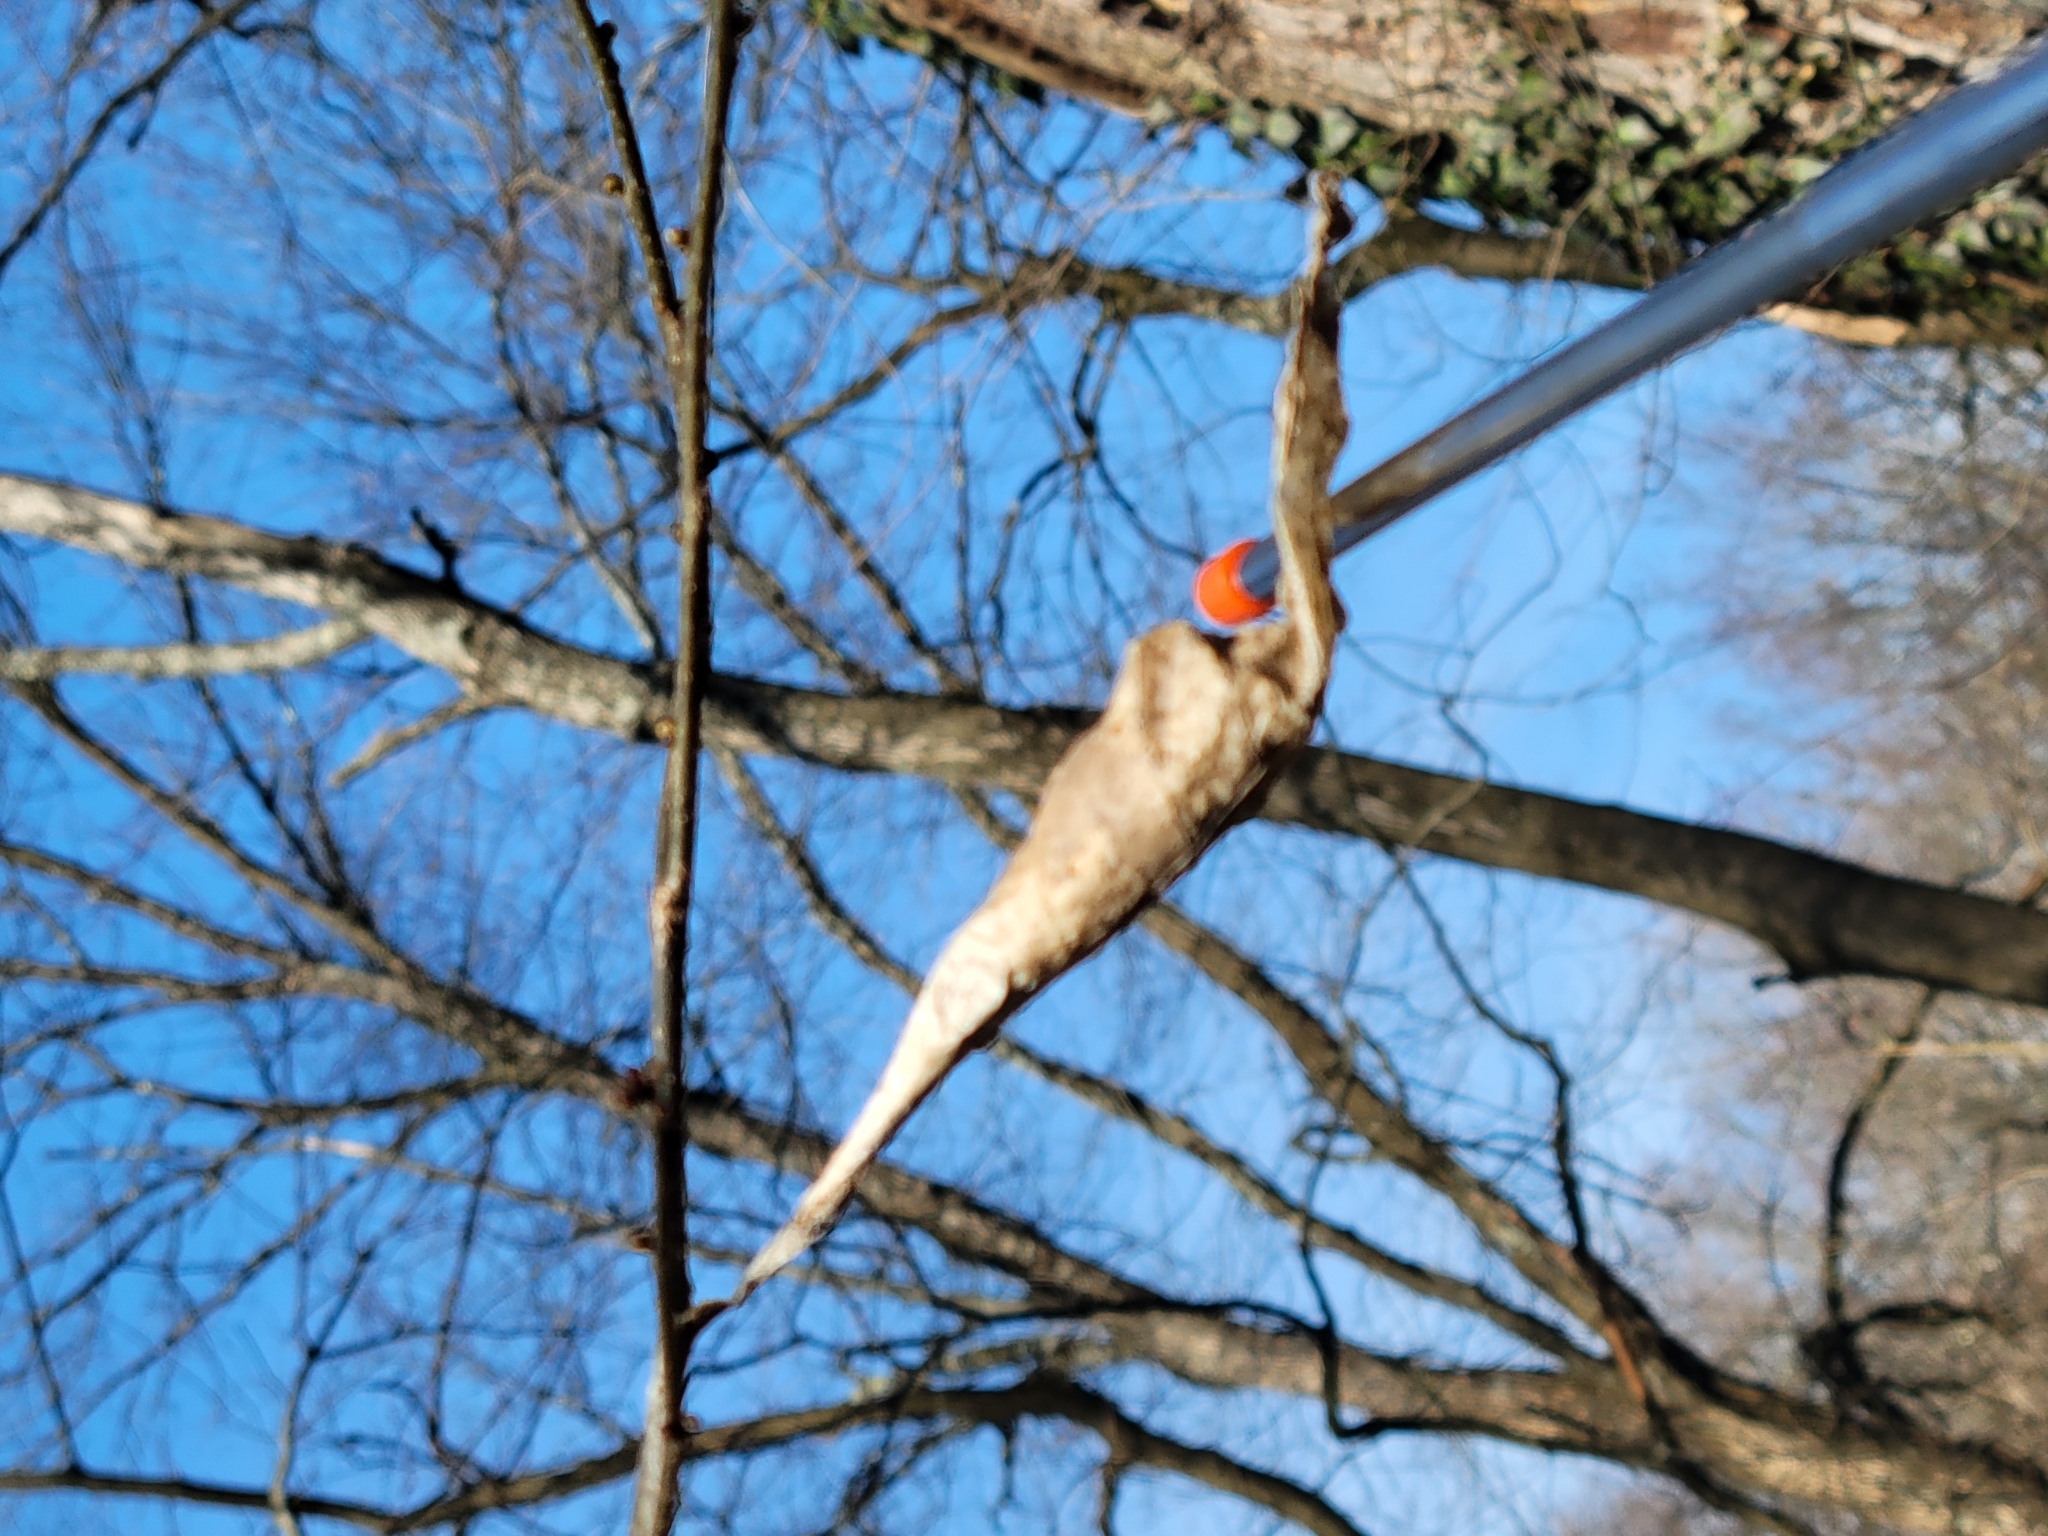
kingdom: Animalia
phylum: Arthropoda
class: Insecta
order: Lepidoptera
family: Saturniidae
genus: Callosamia
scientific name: Callosamia promethea
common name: Promethea silkmoth
